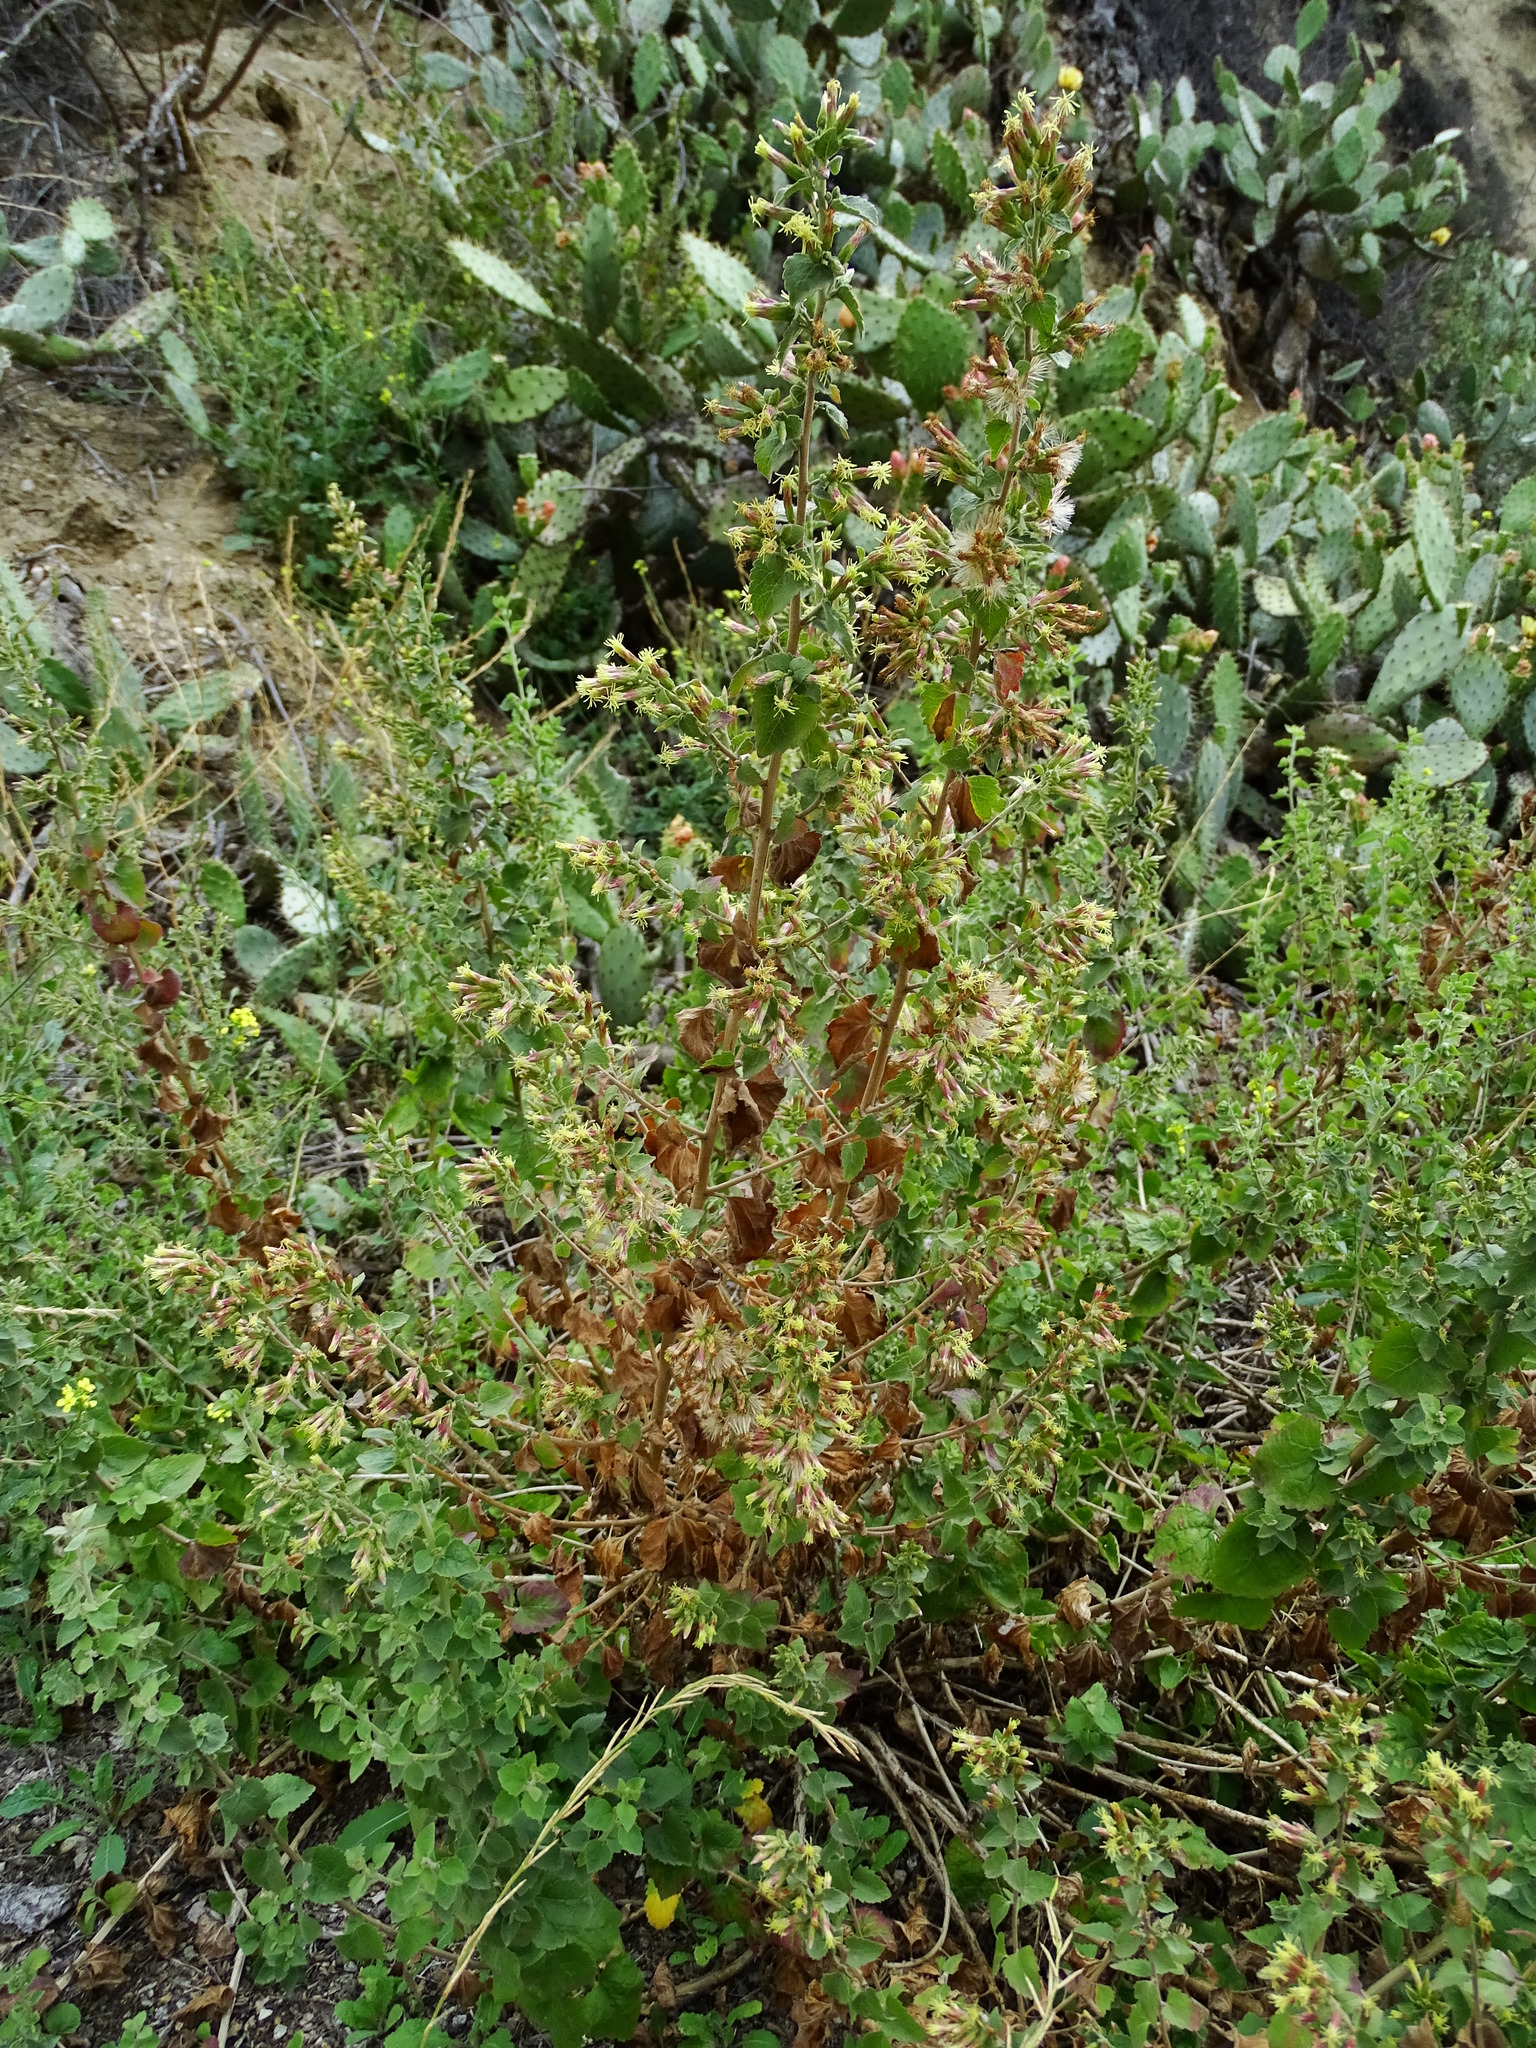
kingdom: Plantae
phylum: Tracheophyta
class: Magnoliopsida
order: Asterales
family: Asteraceae
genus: Brickellia
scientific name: Brickellia californica
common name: California brickellbush
